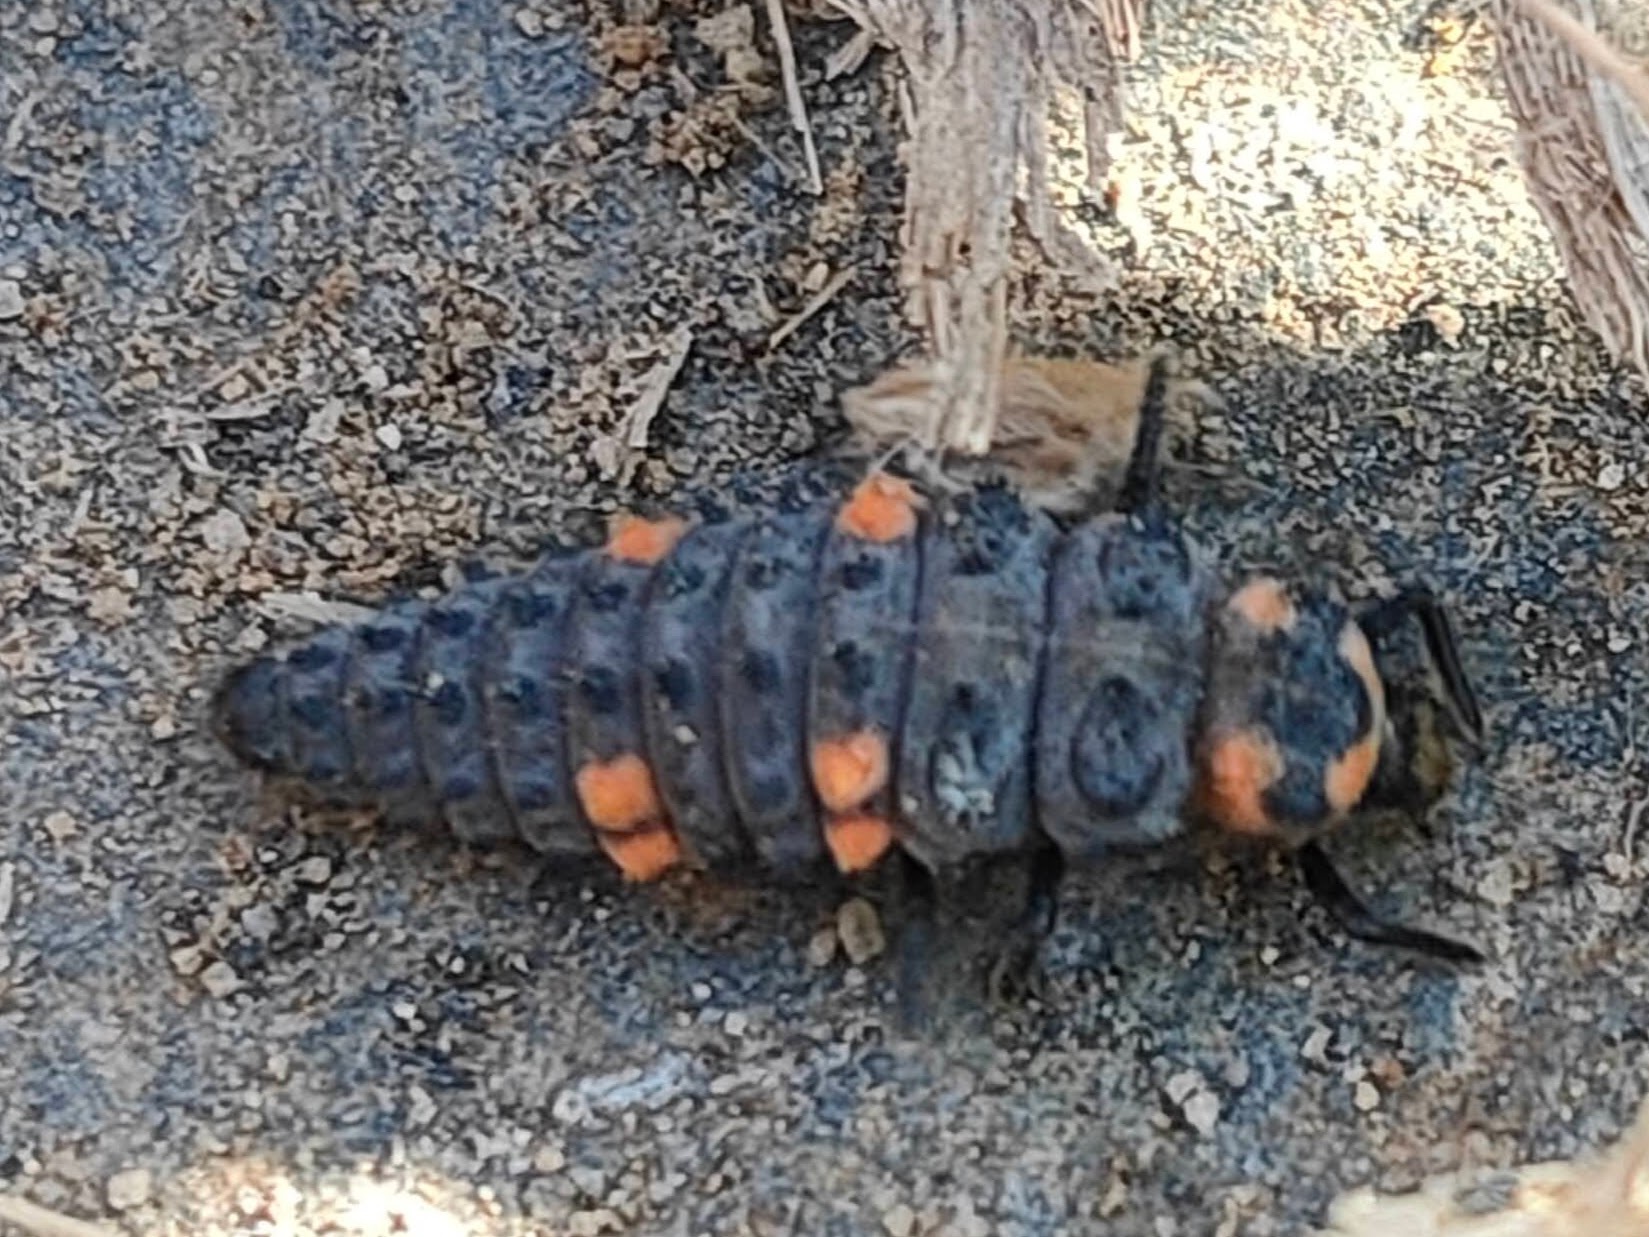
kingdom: Animalia
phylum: Arthropoda
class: Insecta
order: Coleoptera
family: Coccinellidae
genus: Coccinella
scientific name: Coccinella septempunctata
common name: Sevenspotted lady beetle
